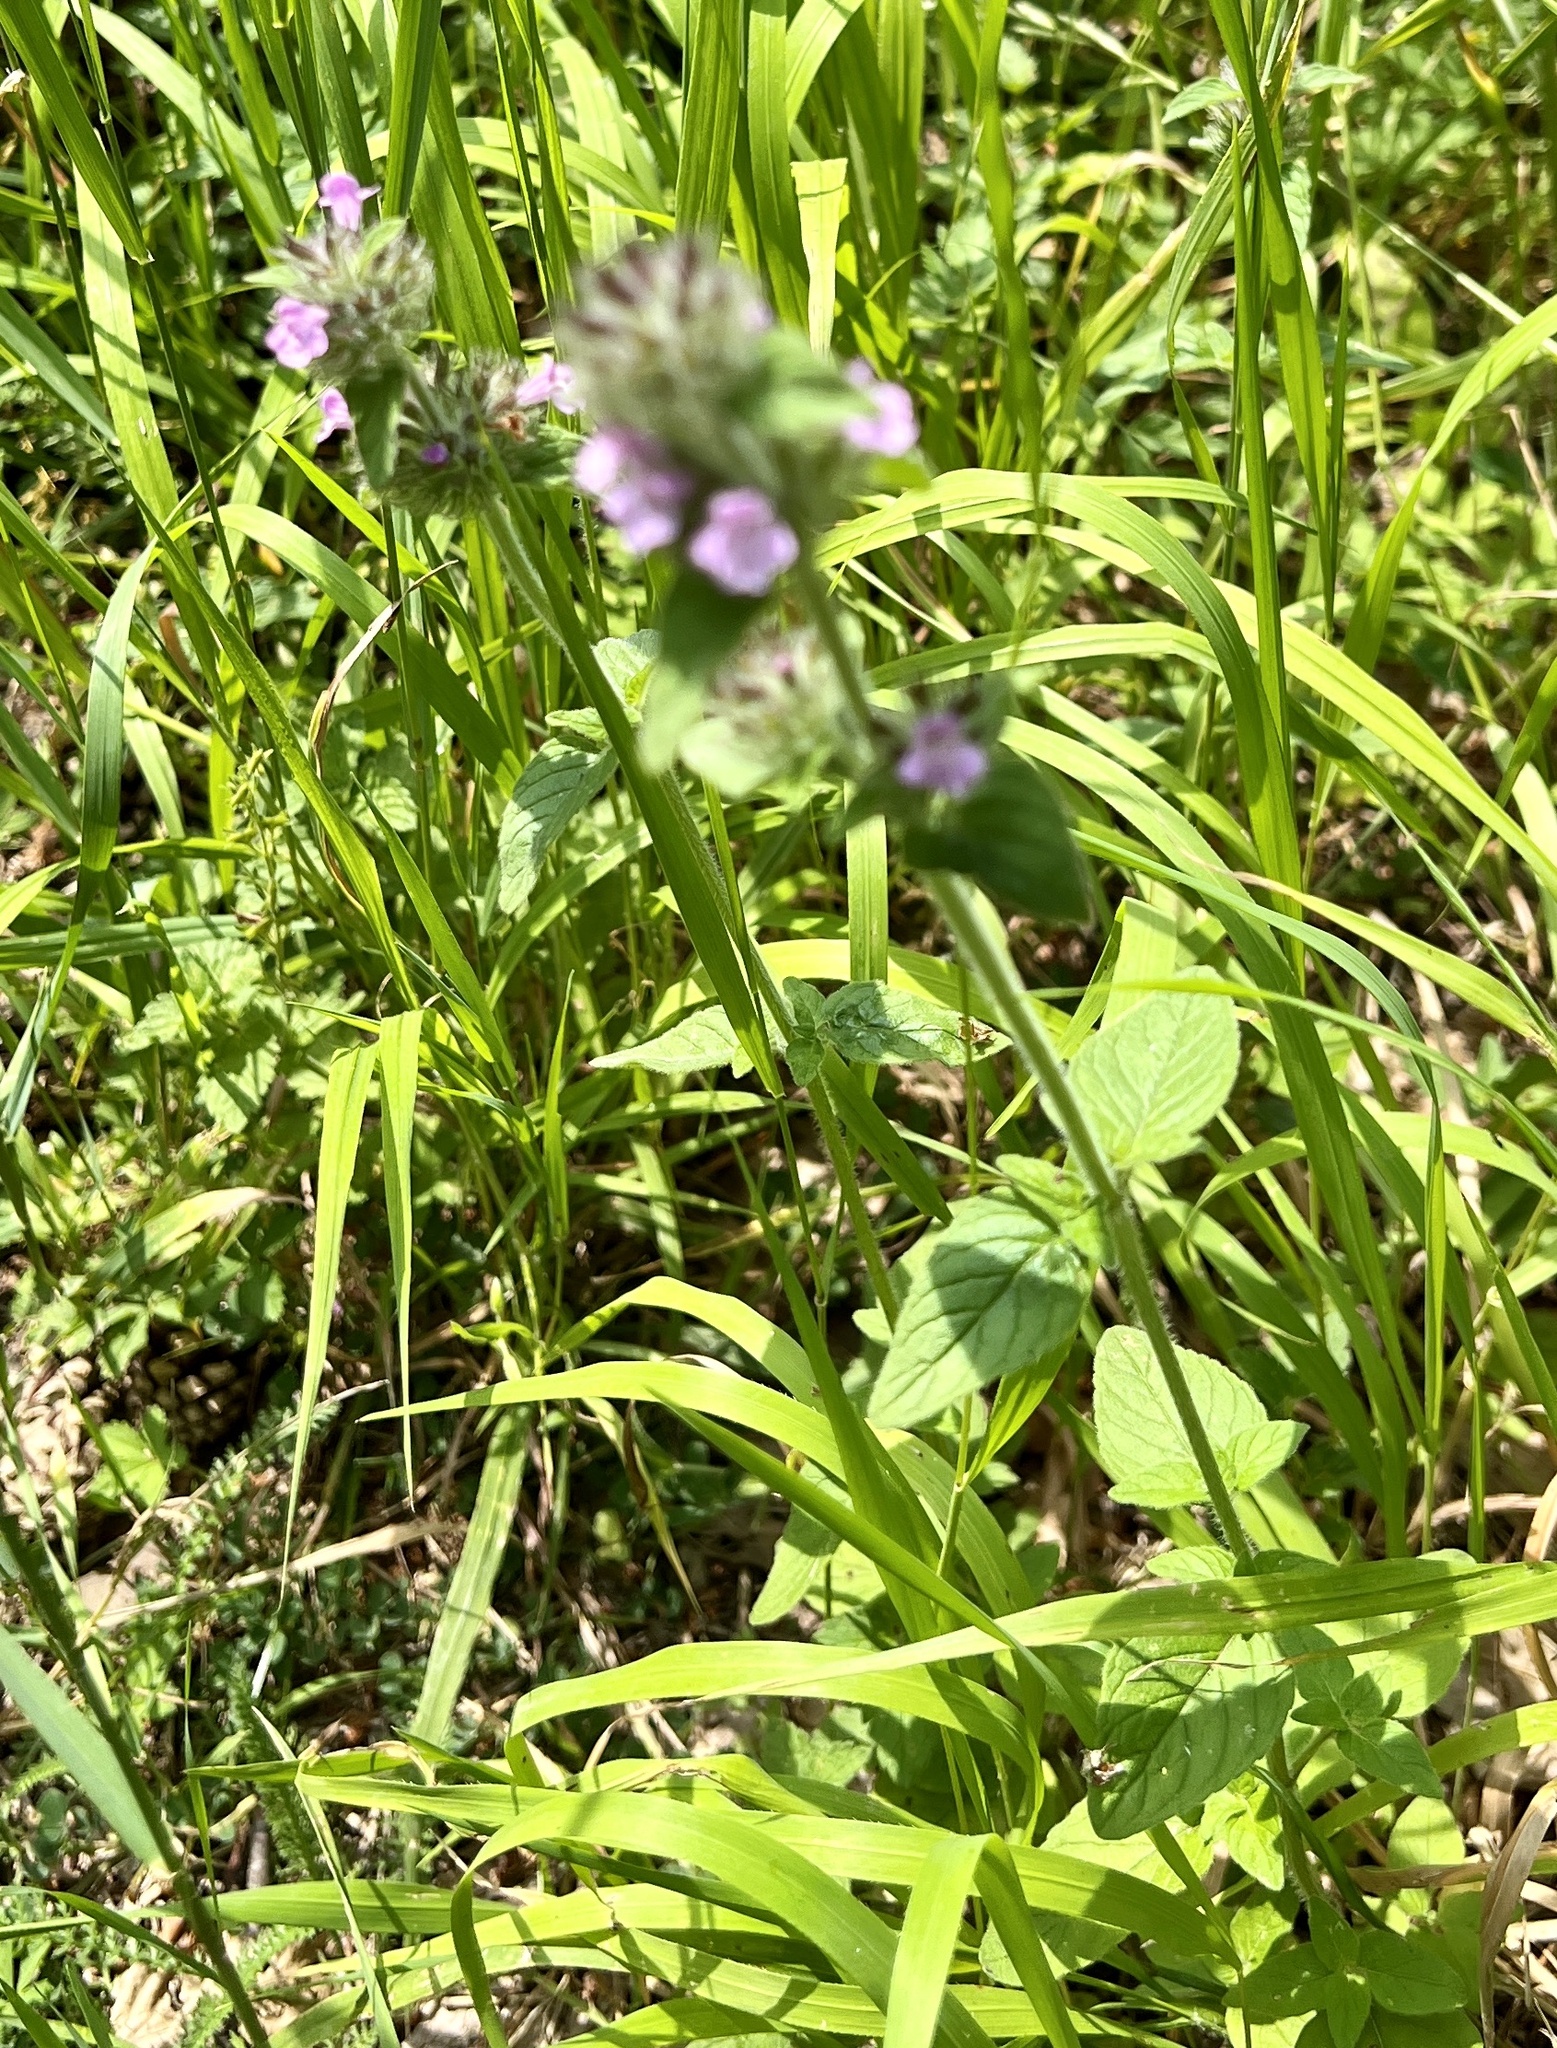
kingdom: Plantae
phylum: Tracheophyta
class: Magnoliopsida
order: Lamiales
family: Lamiaceae
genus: Clinopodium
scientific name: Clinopodium vulgare
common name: Wild basil
